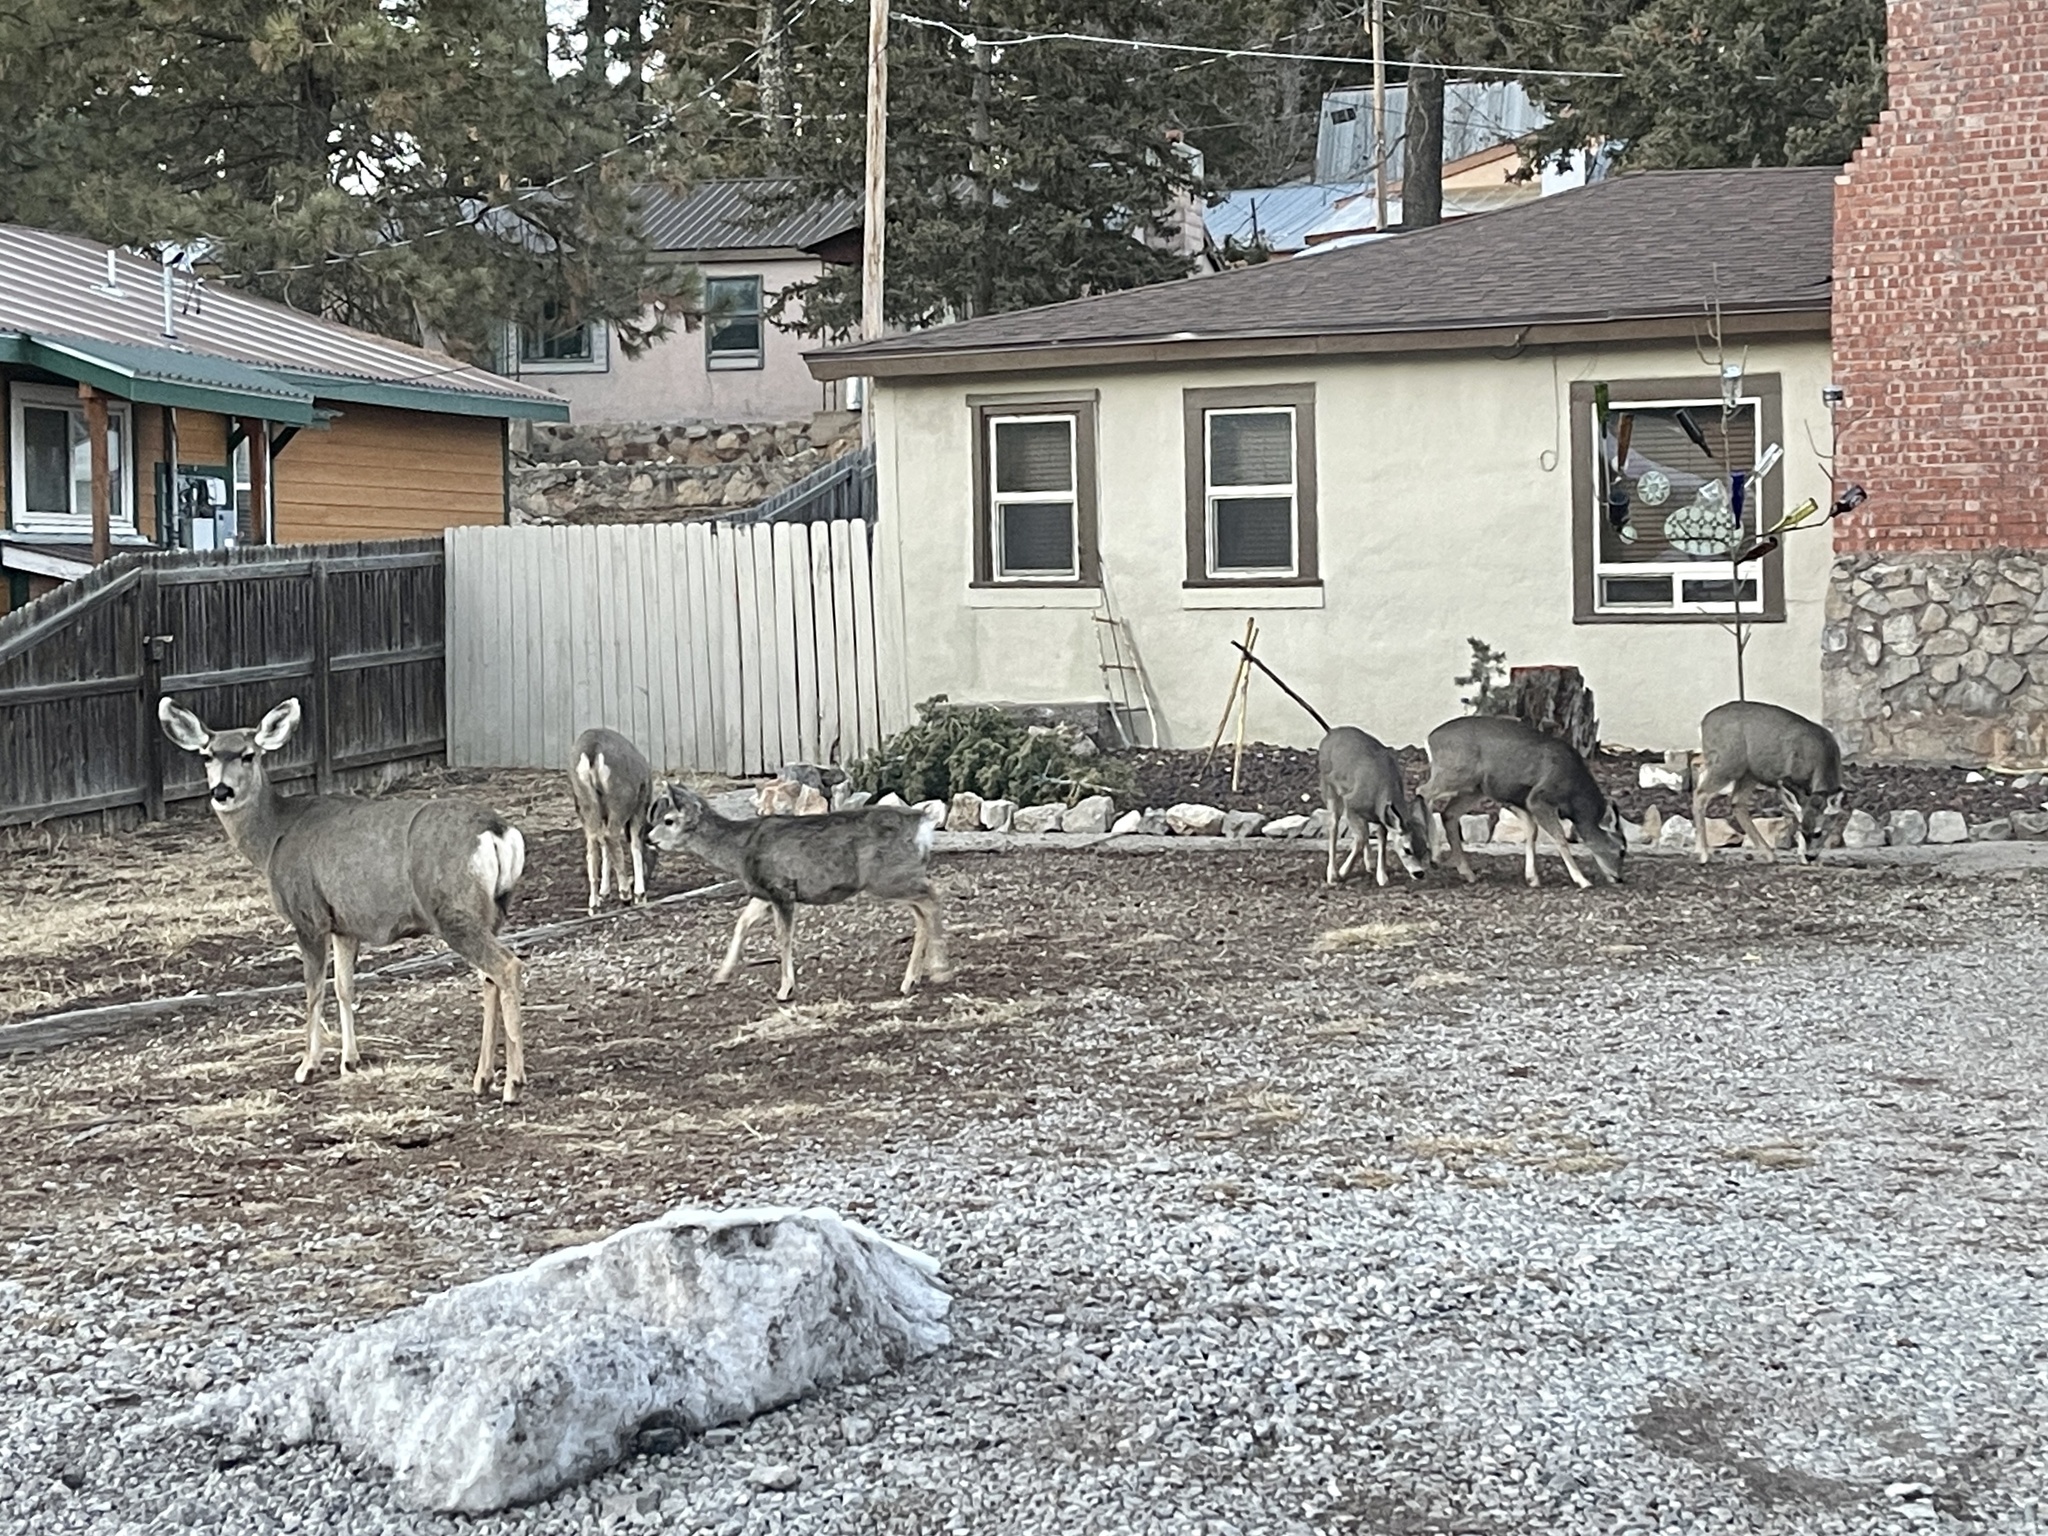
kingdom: Animalia
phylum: Chordata
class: Mammalia
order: Artiodactyla
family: Cervidae
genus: Odocoileus
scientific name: Odocoileus hemionus
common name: Mule deer
